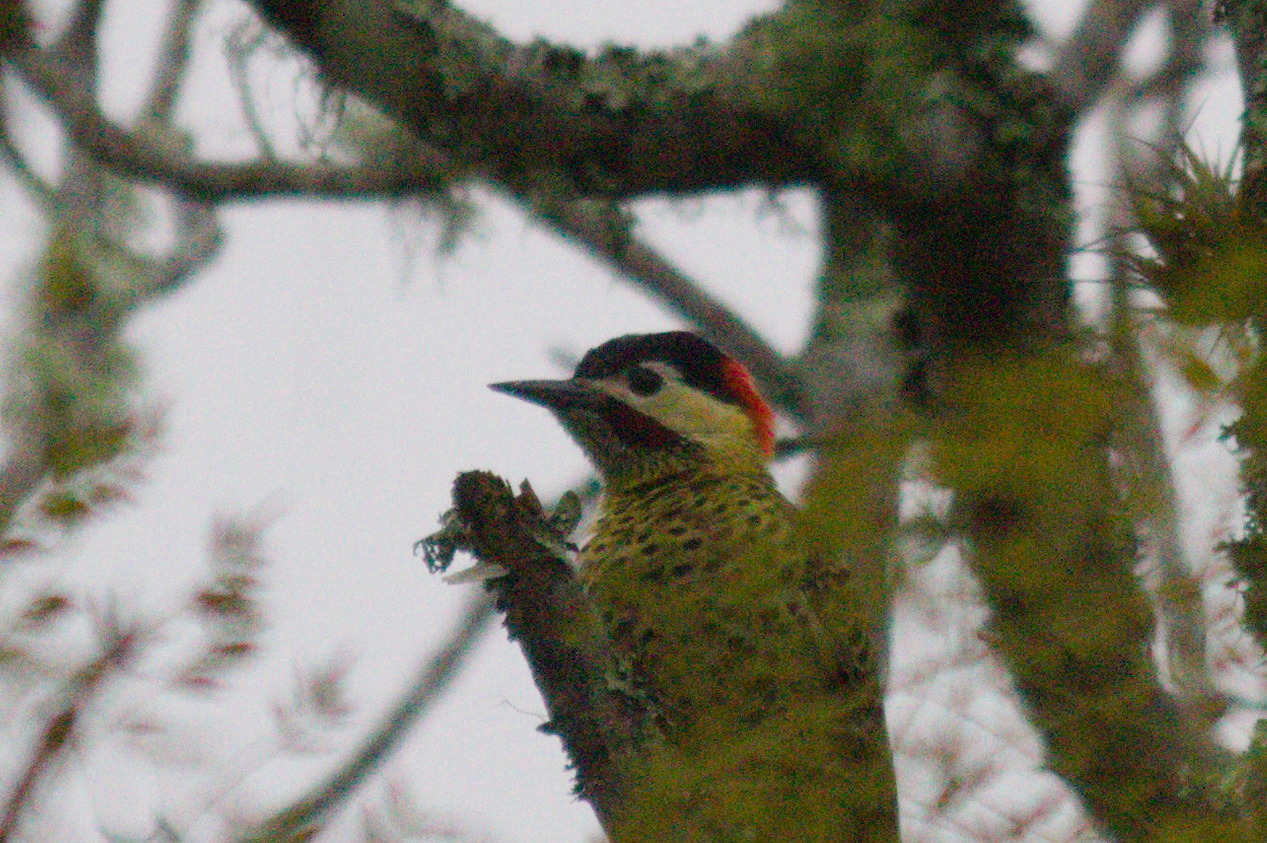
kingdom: Animalia
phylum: Chordata
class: Aves
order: Piciformes
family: Picidae
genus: Colaptes
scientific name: Colaptes melanochloros
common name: Green-barred woodpecker
